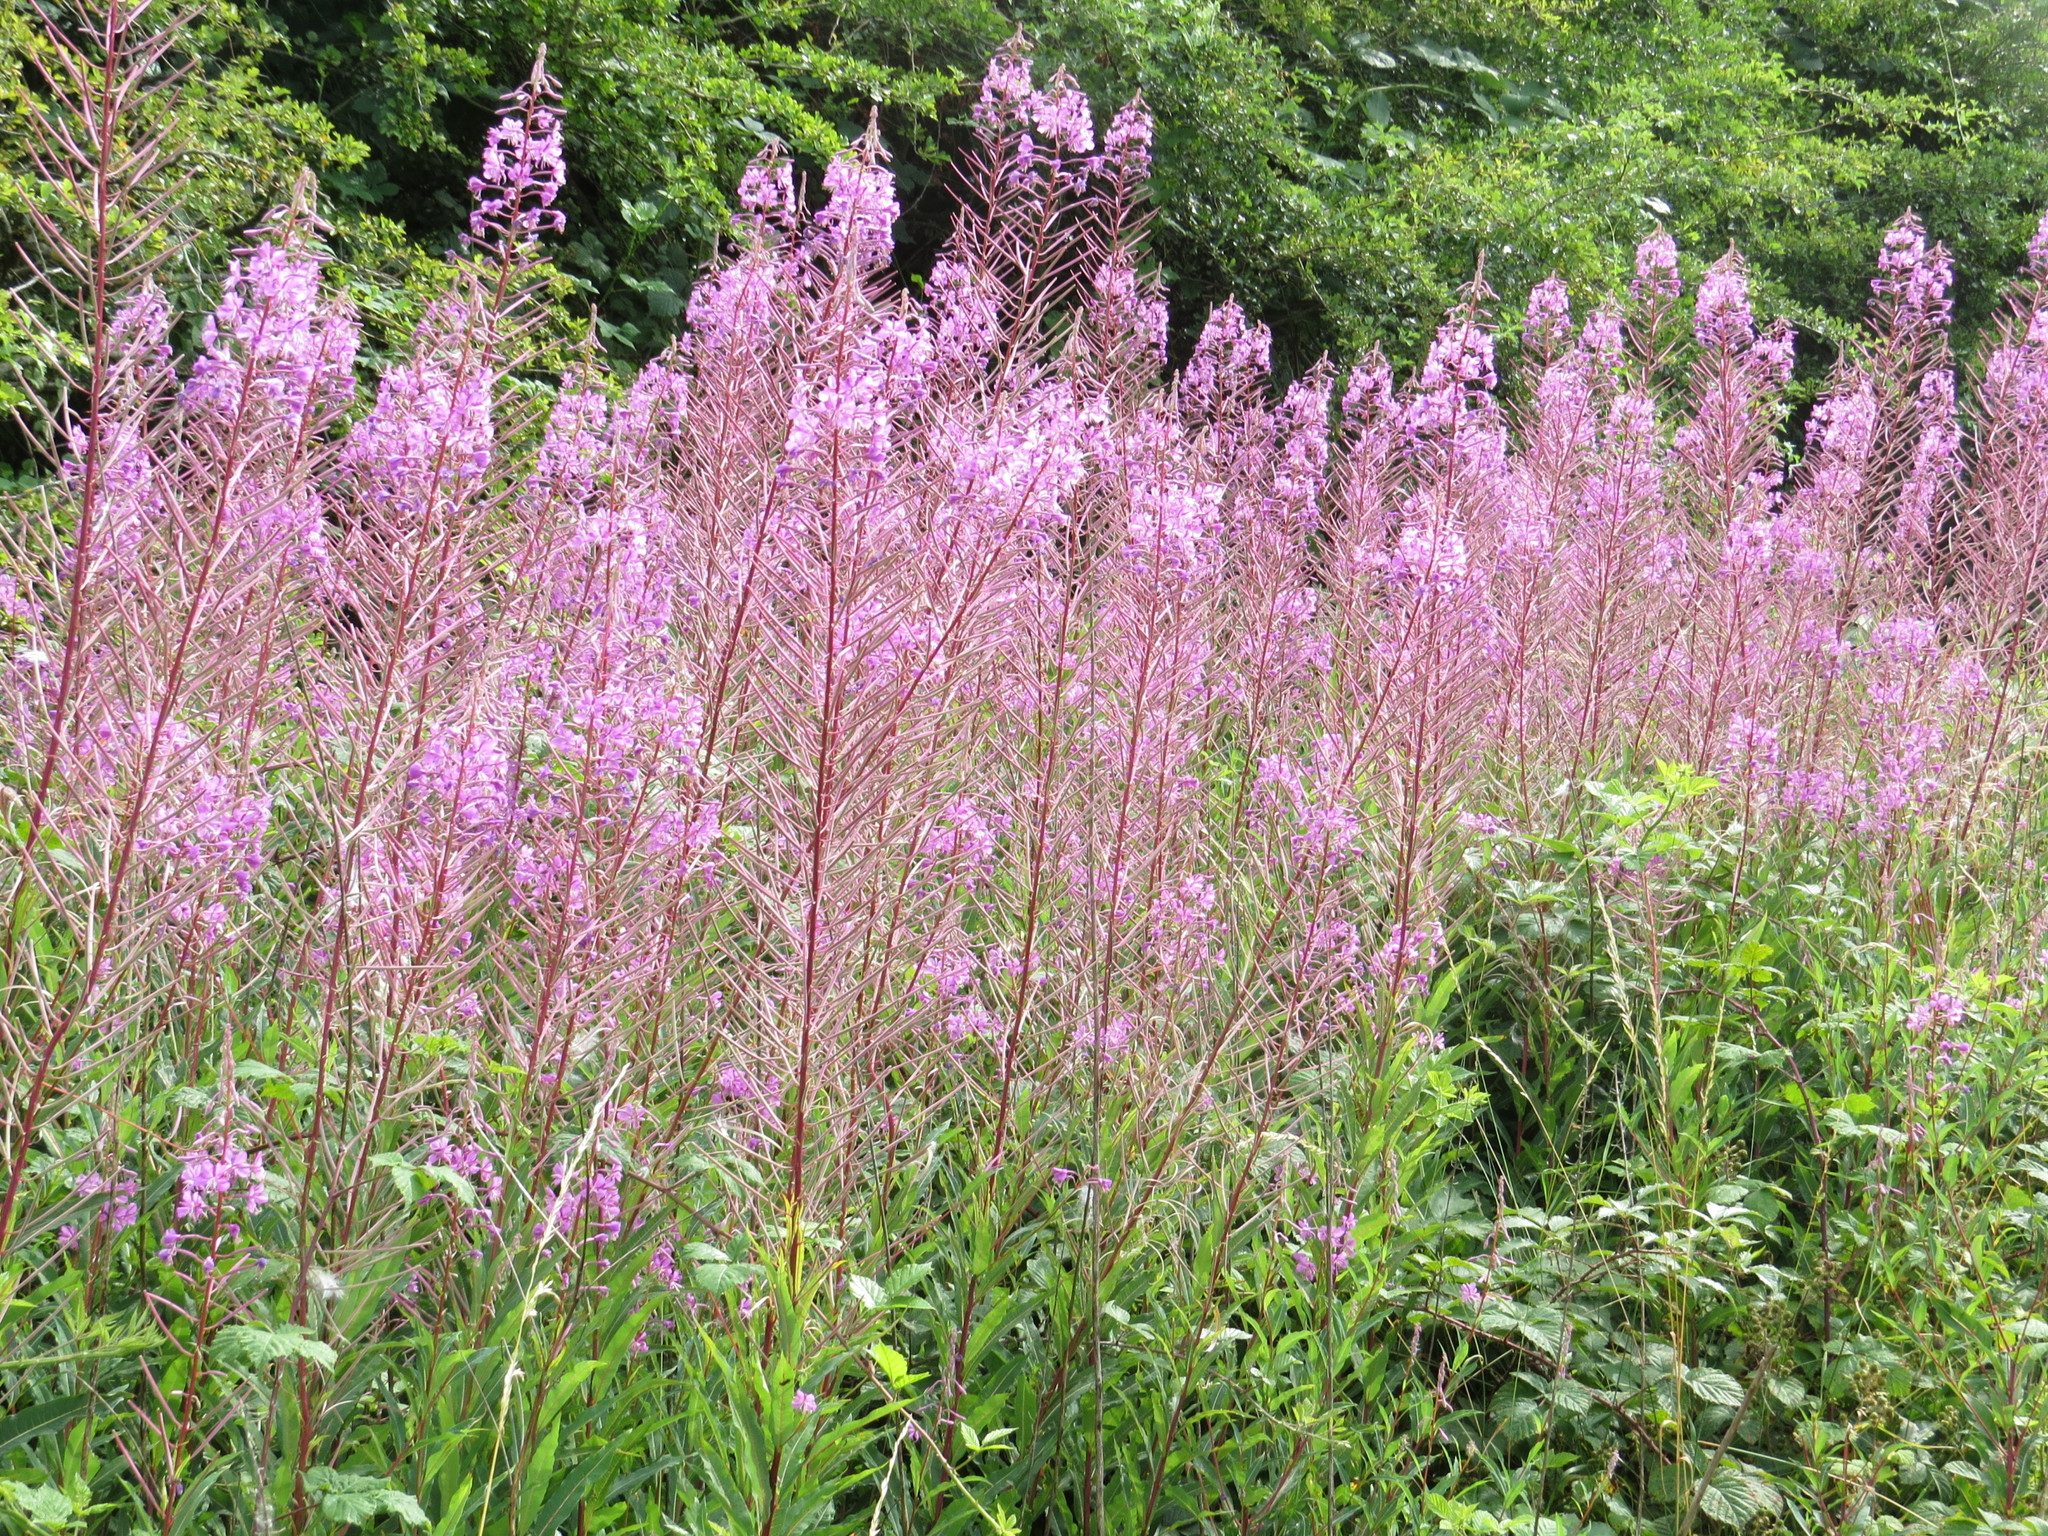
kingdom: Plantae
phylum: Tracheophyta
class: Magnoliopsida
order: Myrtales
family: Onagraceae
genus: Chamaenerion
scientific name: Chamaenerion angustifolium
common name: Fireweed
